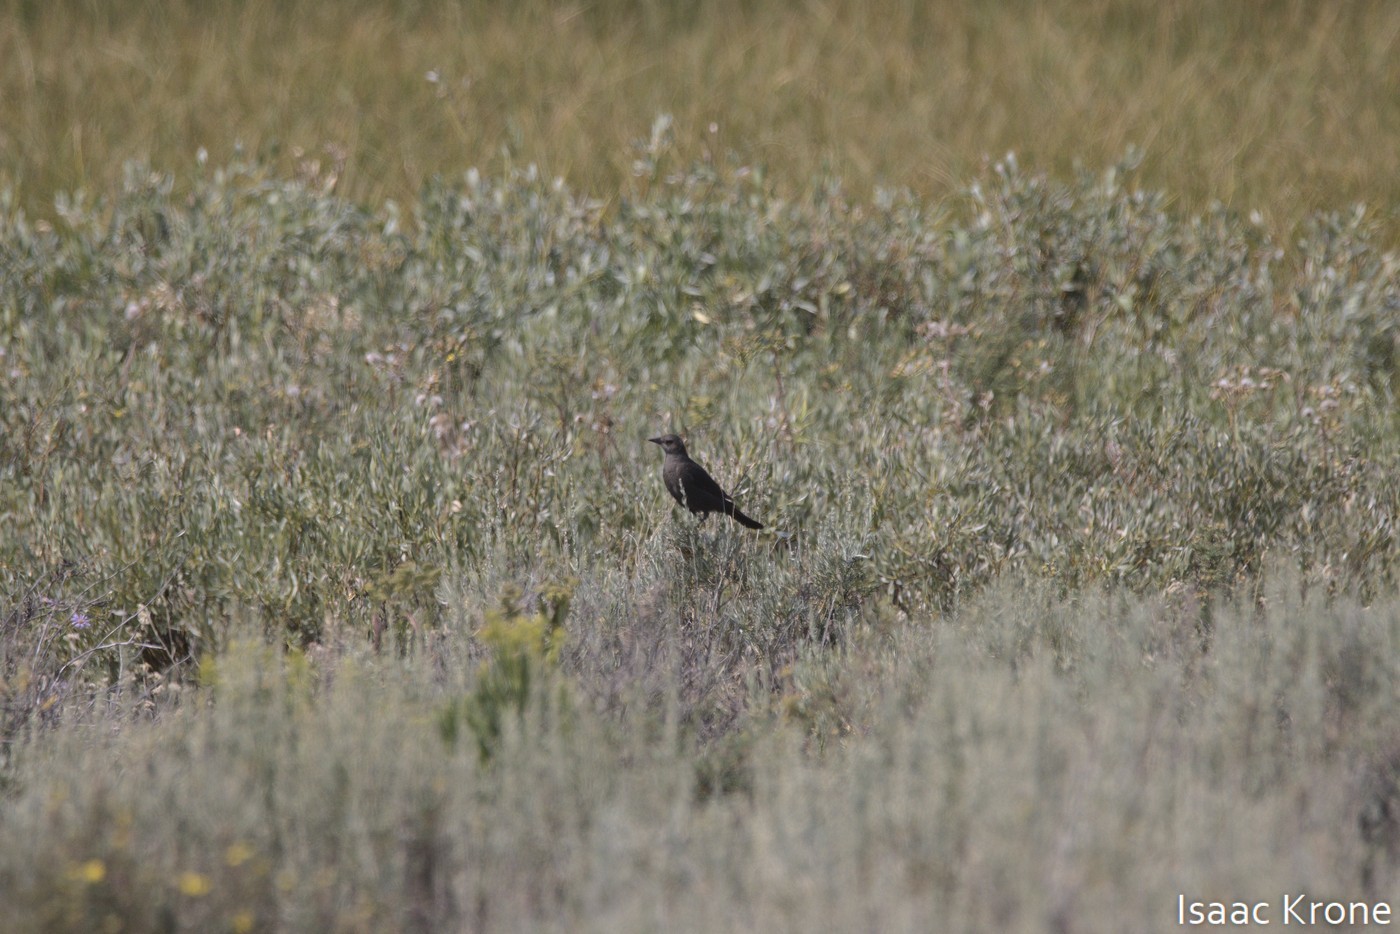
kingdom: Animalia
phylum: Chordata
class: Aves
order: Passeriformes
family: Icteridae
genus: Euphagus
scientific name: Euphagus cyanocephalus
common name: Brewer's blackbird
